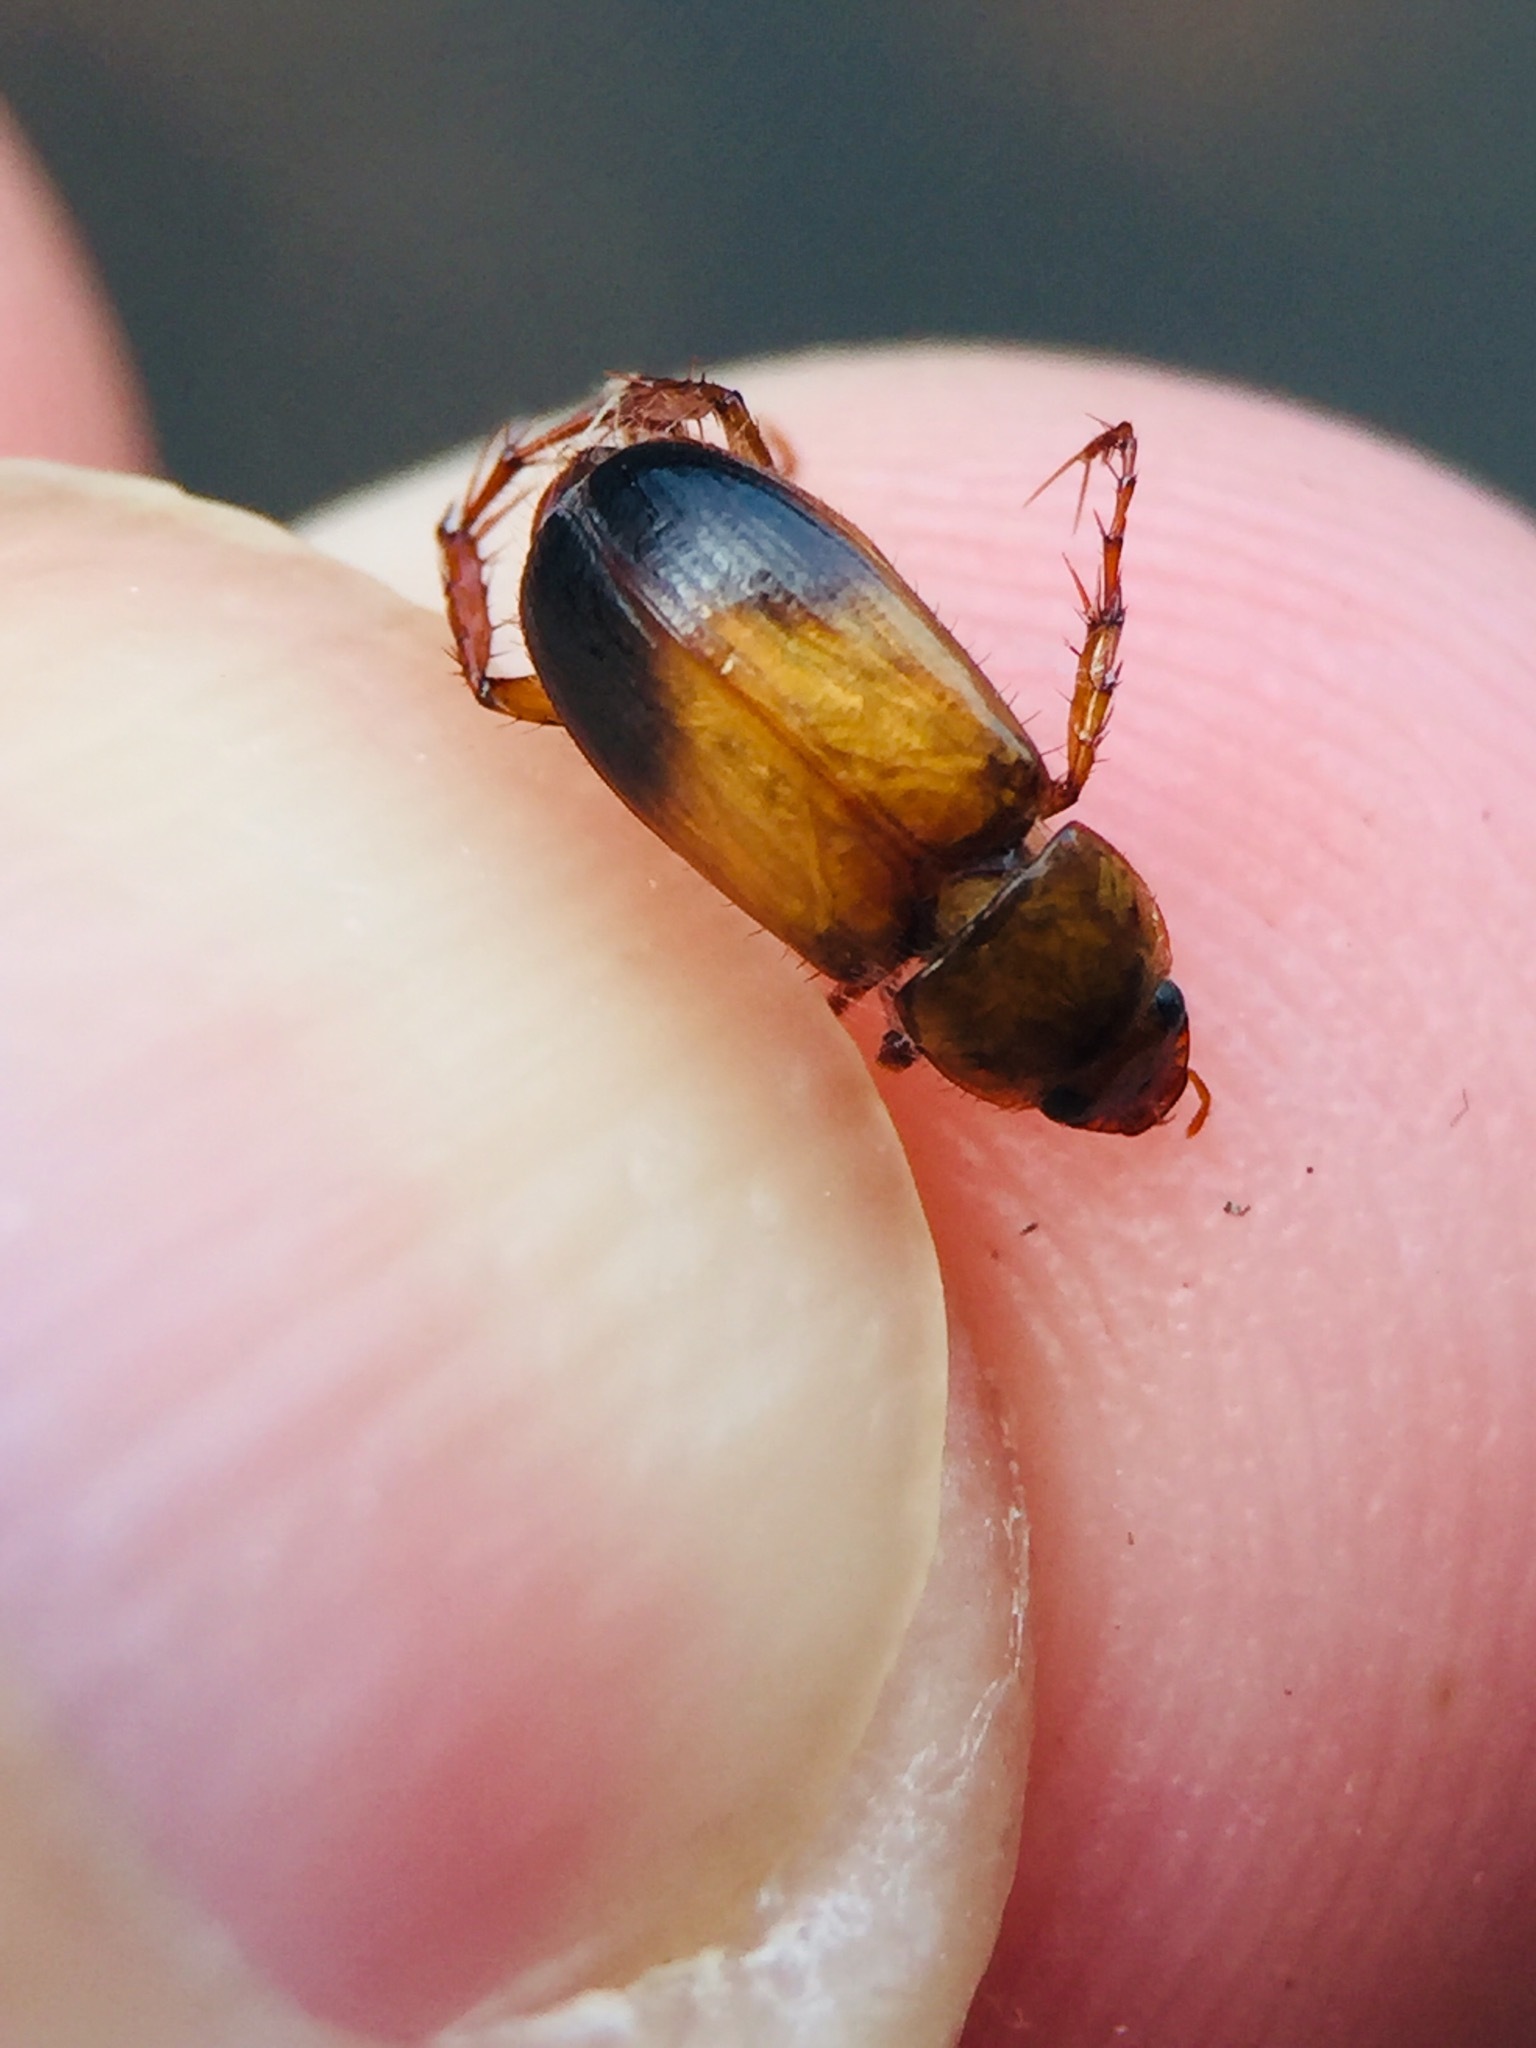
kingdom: Animalia
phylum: Arthropoda
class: Insecta
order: Coleoptera
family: Scarabaeidae
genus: Phyllotocus
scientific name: Phyllotocus macleayi
